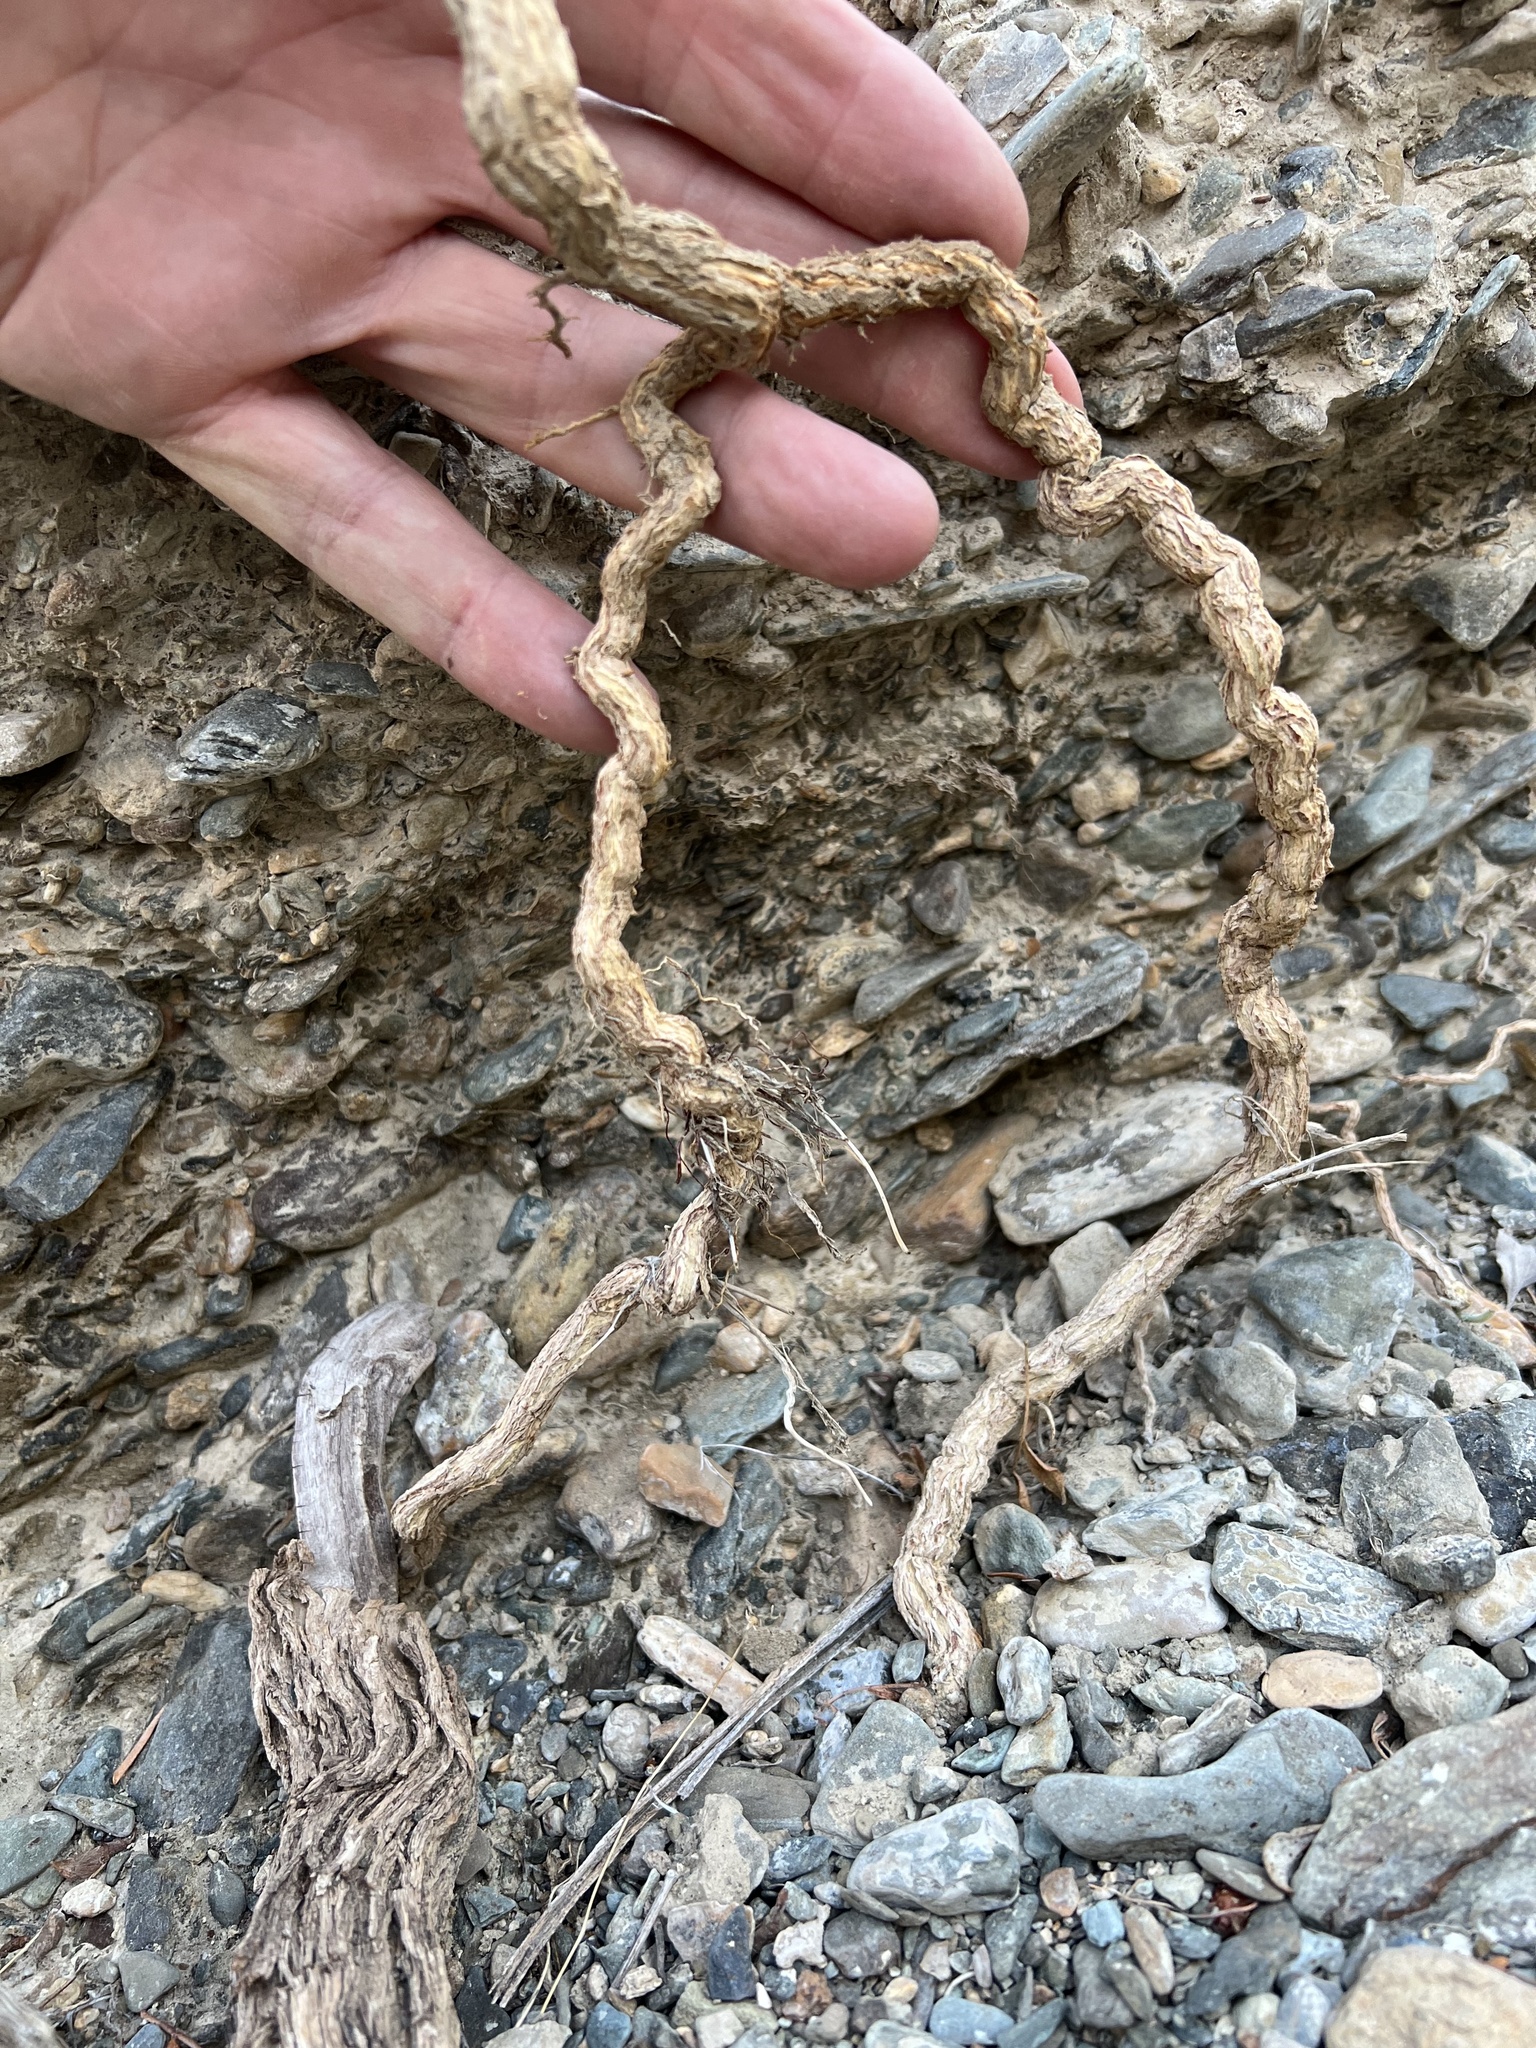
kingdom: Plantae
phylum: Tracheophyta
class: Magnoliopsida
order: Asterales
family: Asteraceae
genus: Encelia
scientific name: Encelia actoni
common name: Acton encelia
